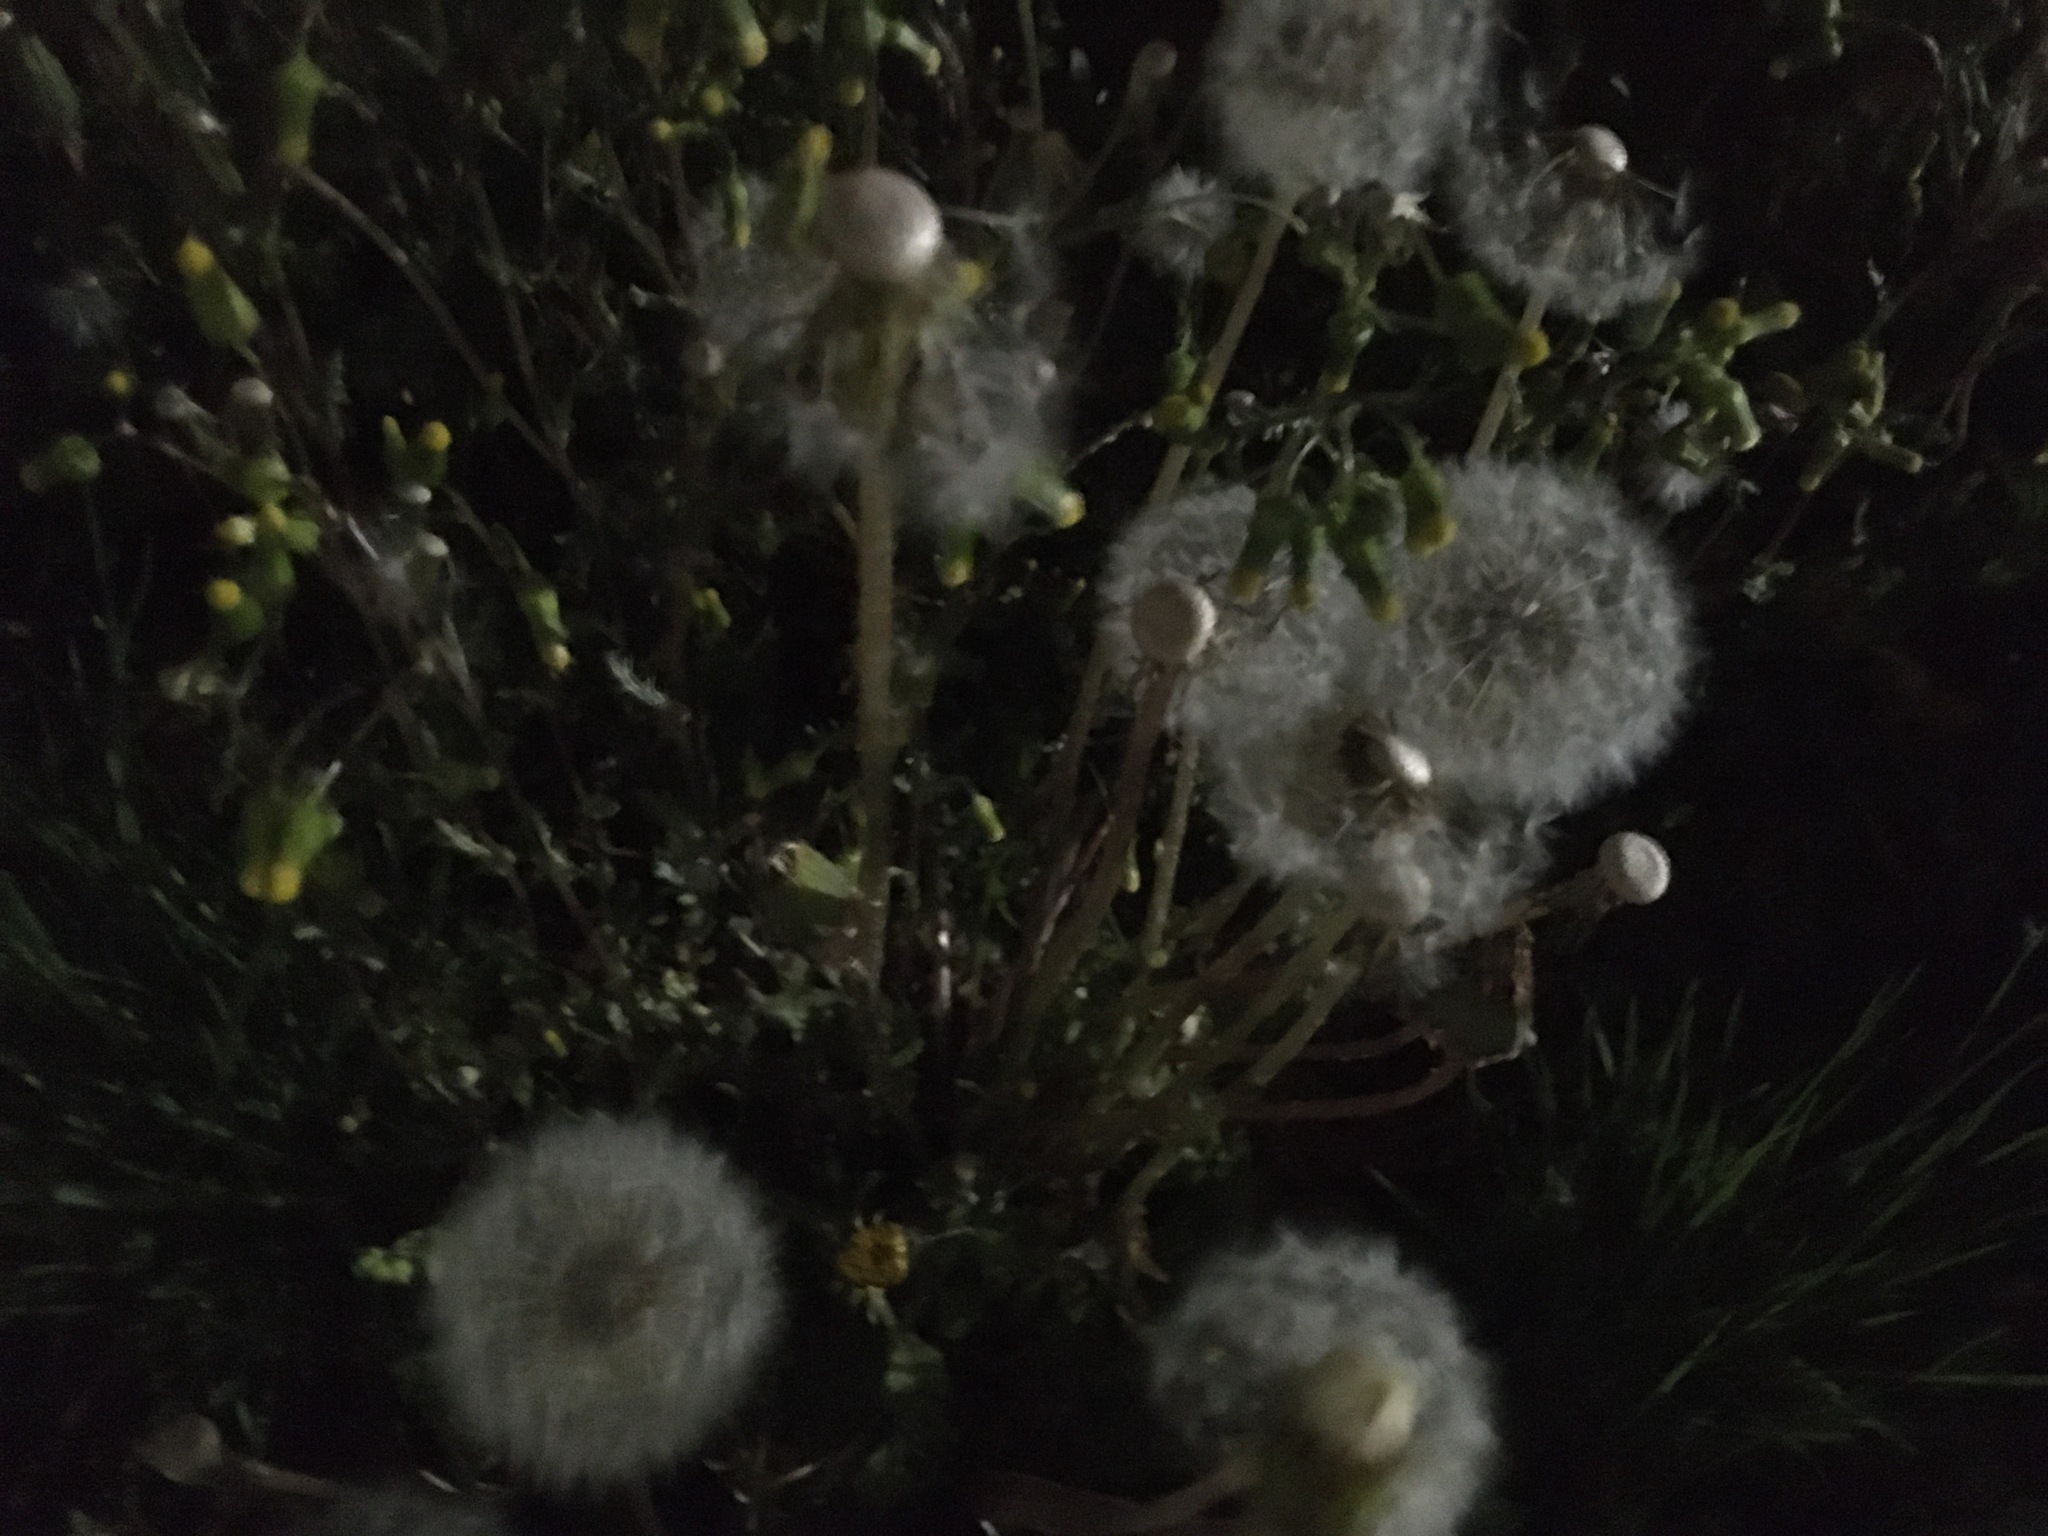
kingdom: Plantae
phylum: Tracheophyta
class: Magnoliopsida
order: Asterales
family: Asteraceae
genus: Taraxacum
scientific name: Taraxacum officinale
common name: Common dandelion
